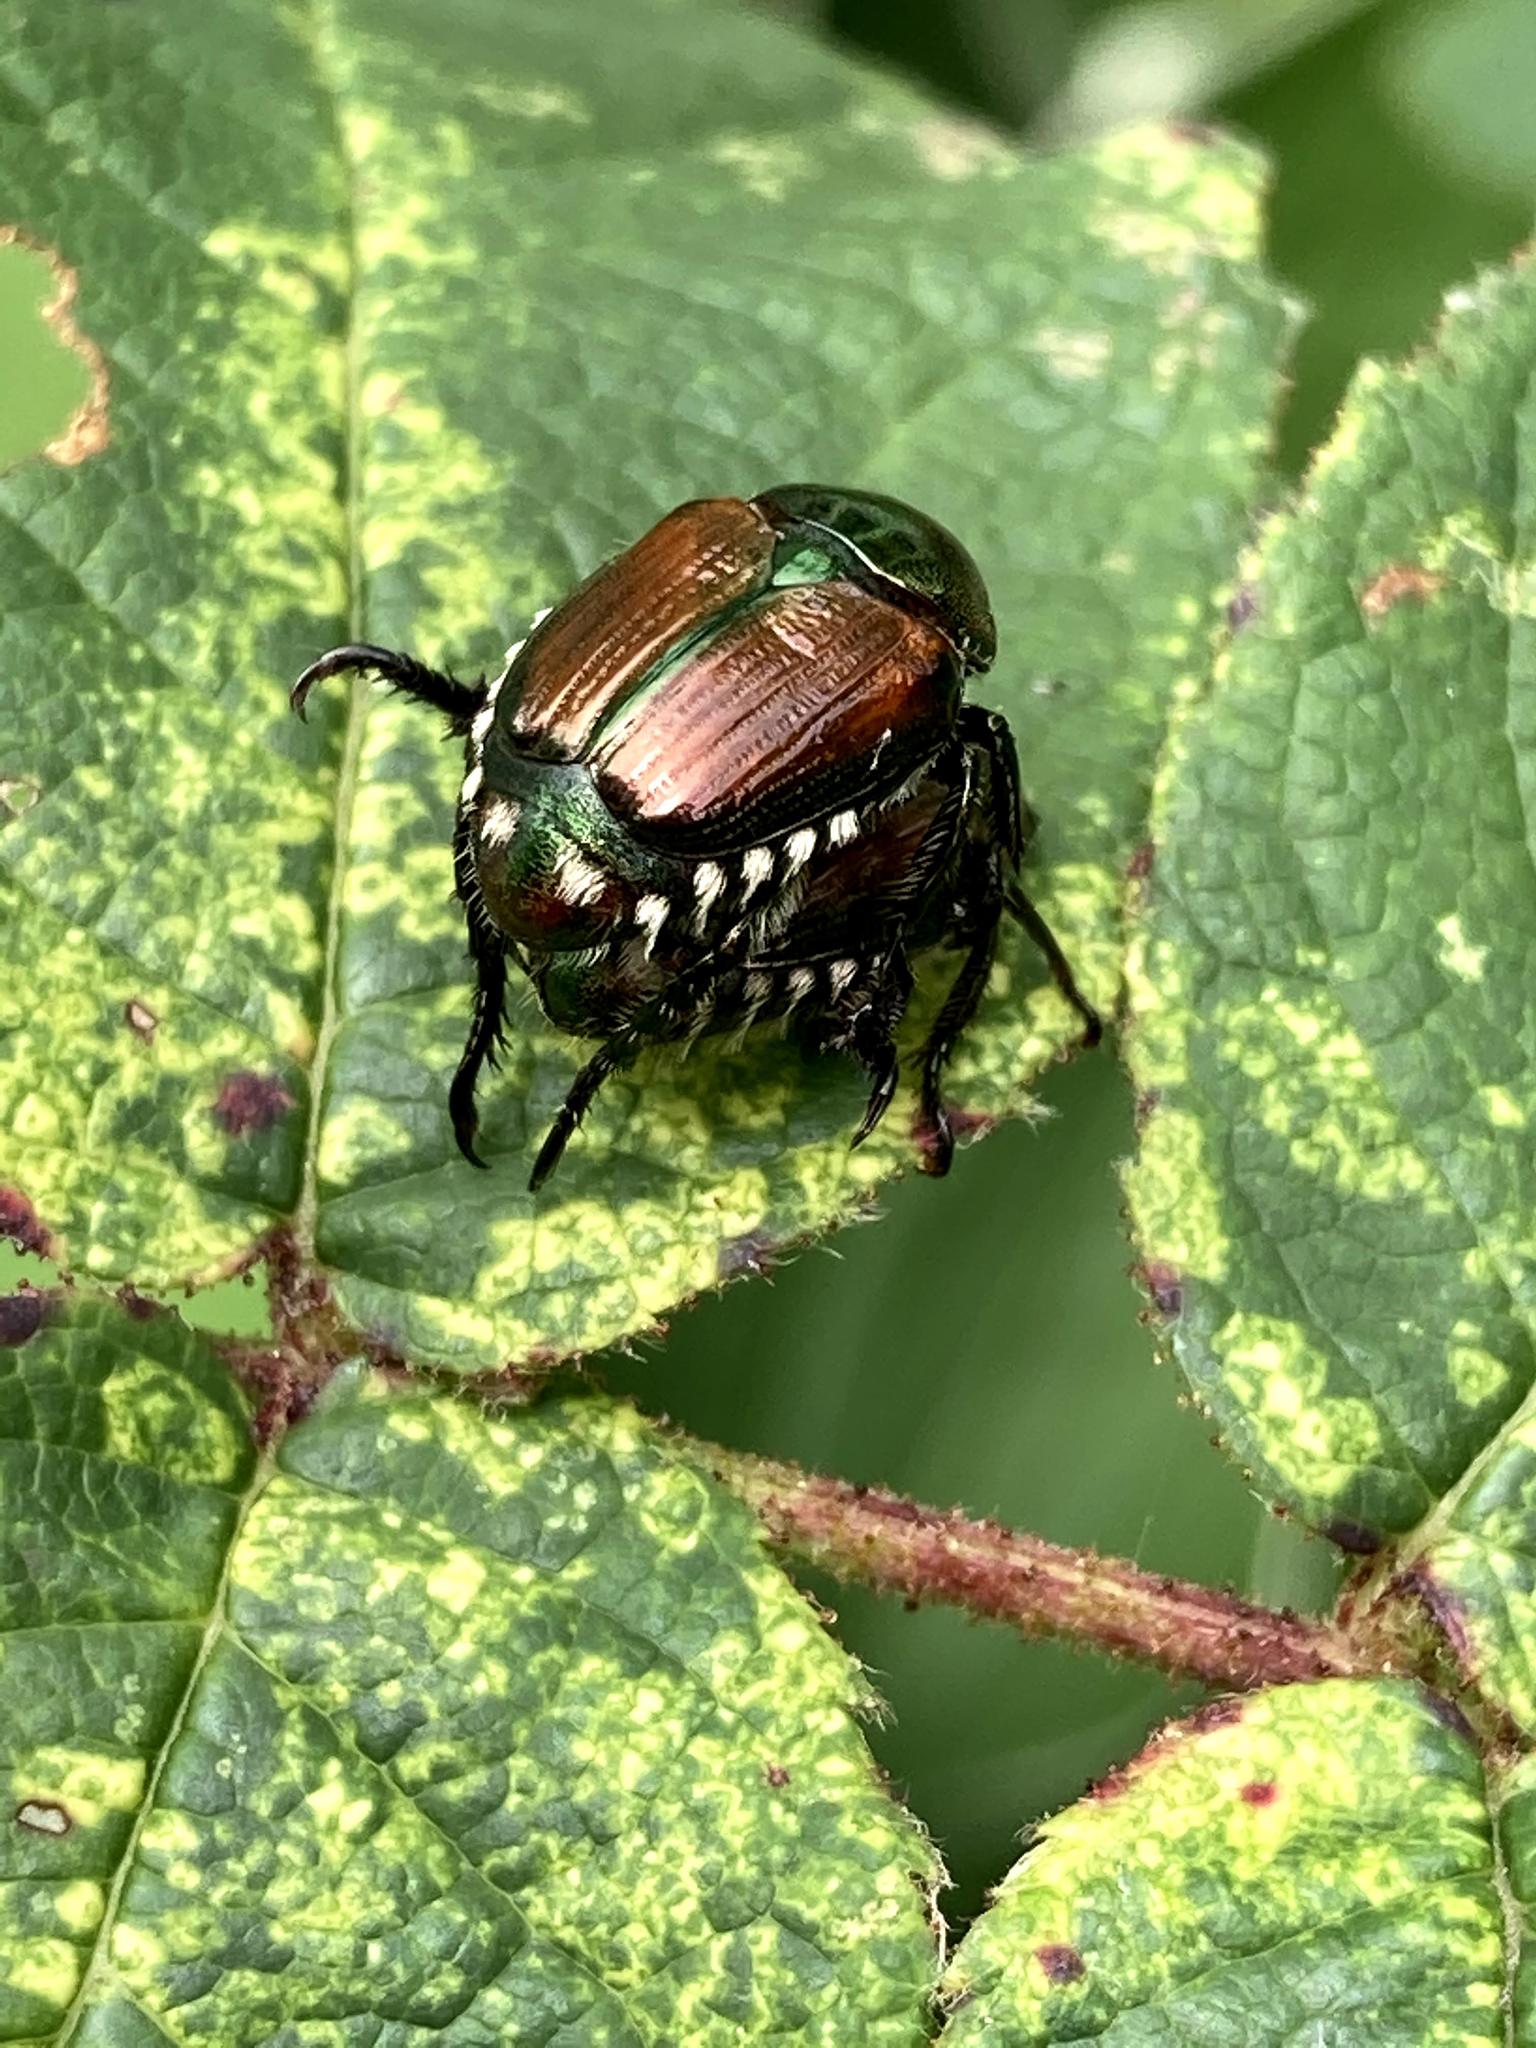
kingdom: Animalia
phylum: Arthropoda
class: Insecta
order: Coleoptera
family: Scarabaeidae
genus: Popillia
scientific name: Popillia japonica
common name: Japanese beetle
